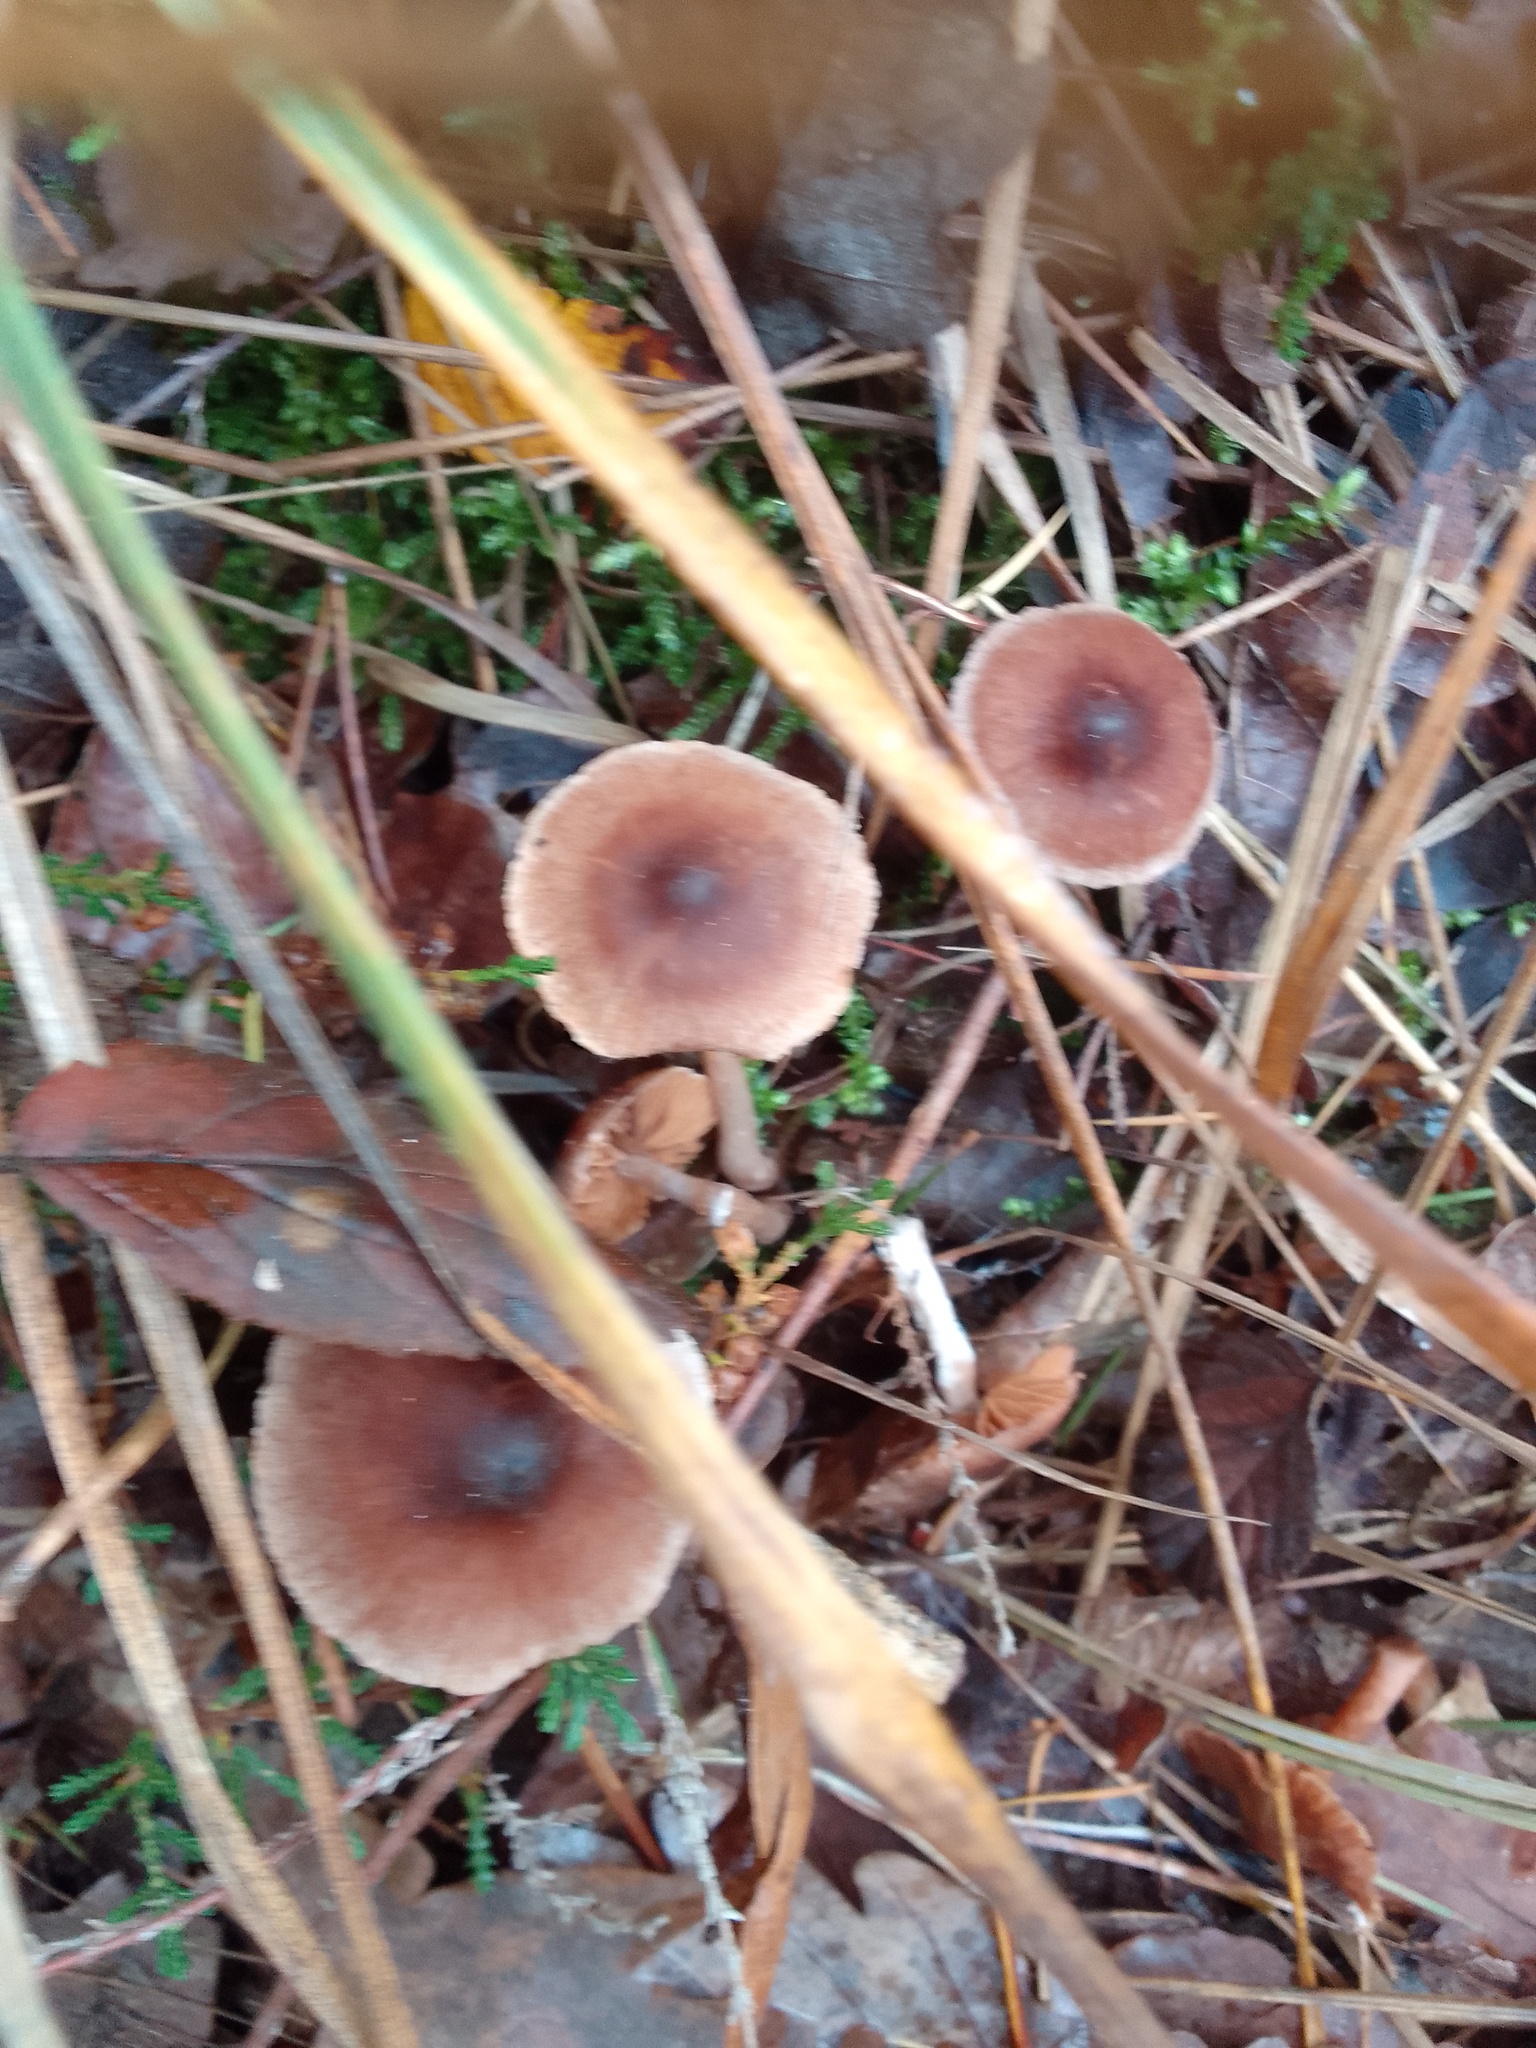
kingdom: Fungi
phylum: Basidiomycota
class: Agaricomycetes
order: Agaricales
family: Inocybaceae
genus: Inocybe
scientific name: Inocybe napipes
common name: Bulbous fibrecap
